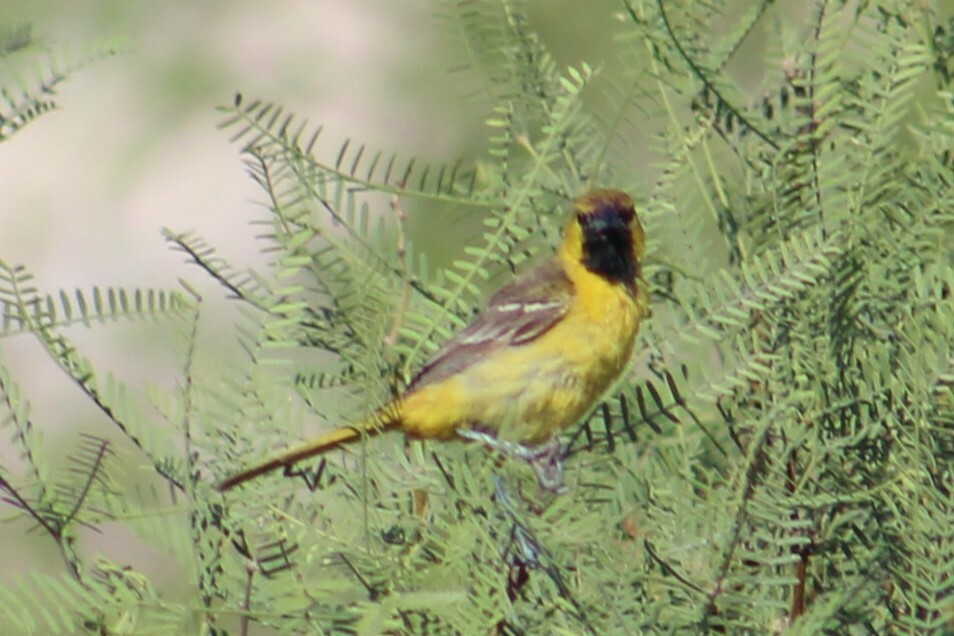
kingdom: Animalia
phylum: Chordata
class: Aves
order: Passeriformes
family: Icteridae
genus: Icterus
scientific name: Icterus cucullatus
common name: Hooded oriole
